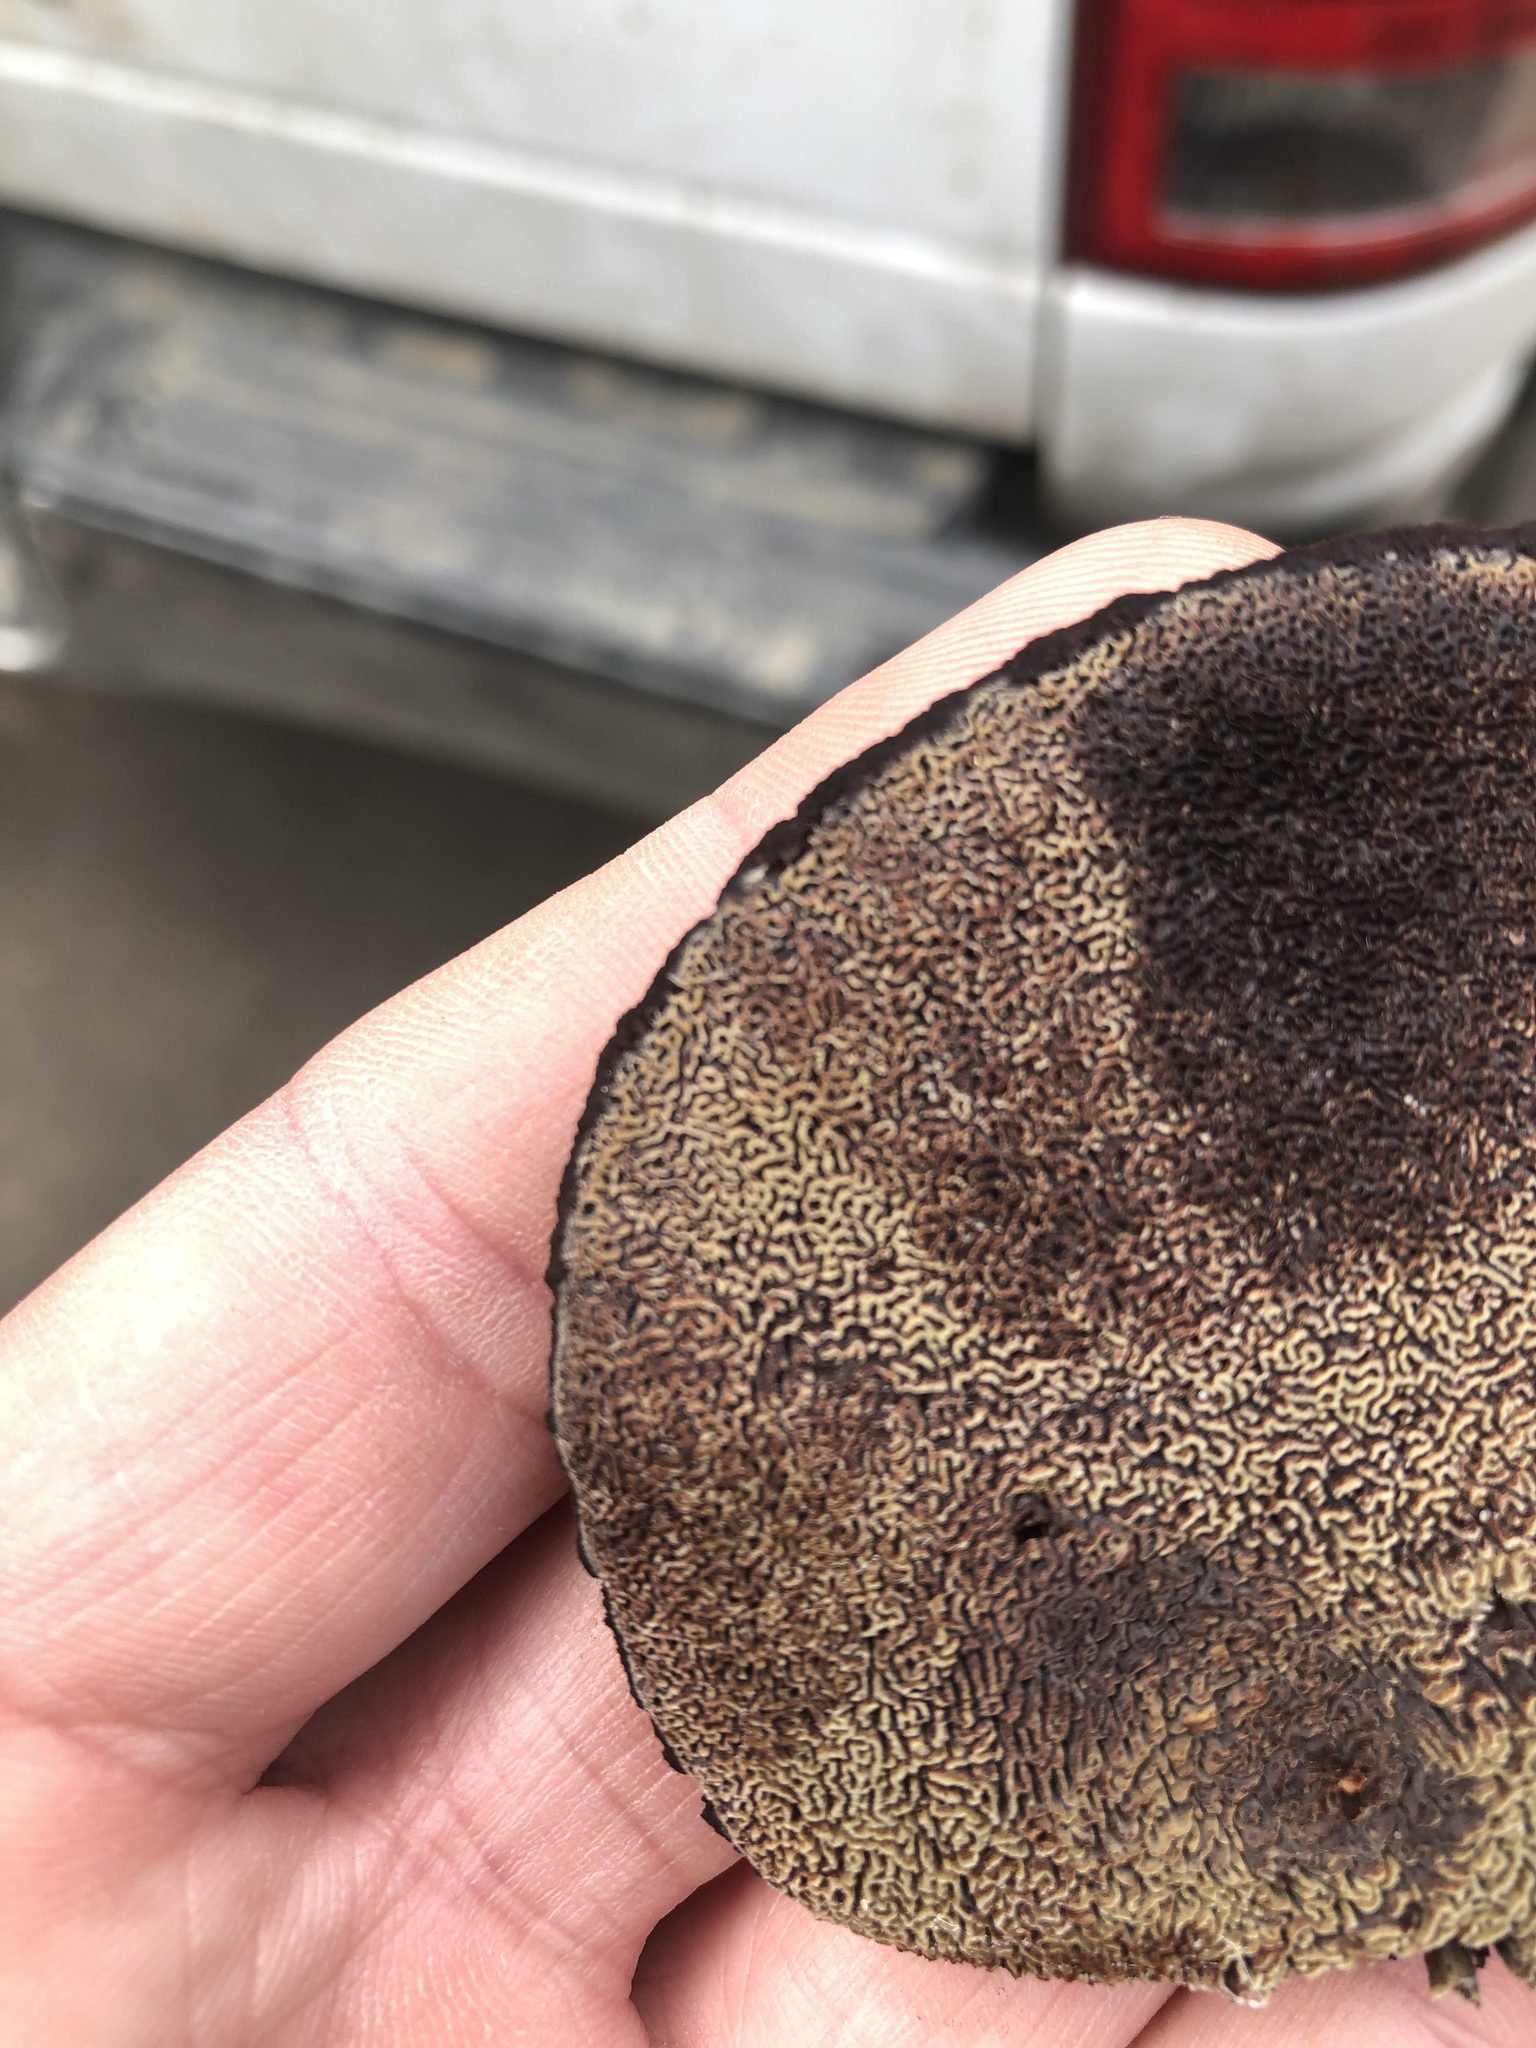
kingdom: Fungi
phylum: Basidiomycota
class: Agaricomycetes
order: Polyporales
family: Laetiporaceae
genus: Phaeolus
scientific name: Phaeolus schweinitzii
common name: Dyer's mazegill
